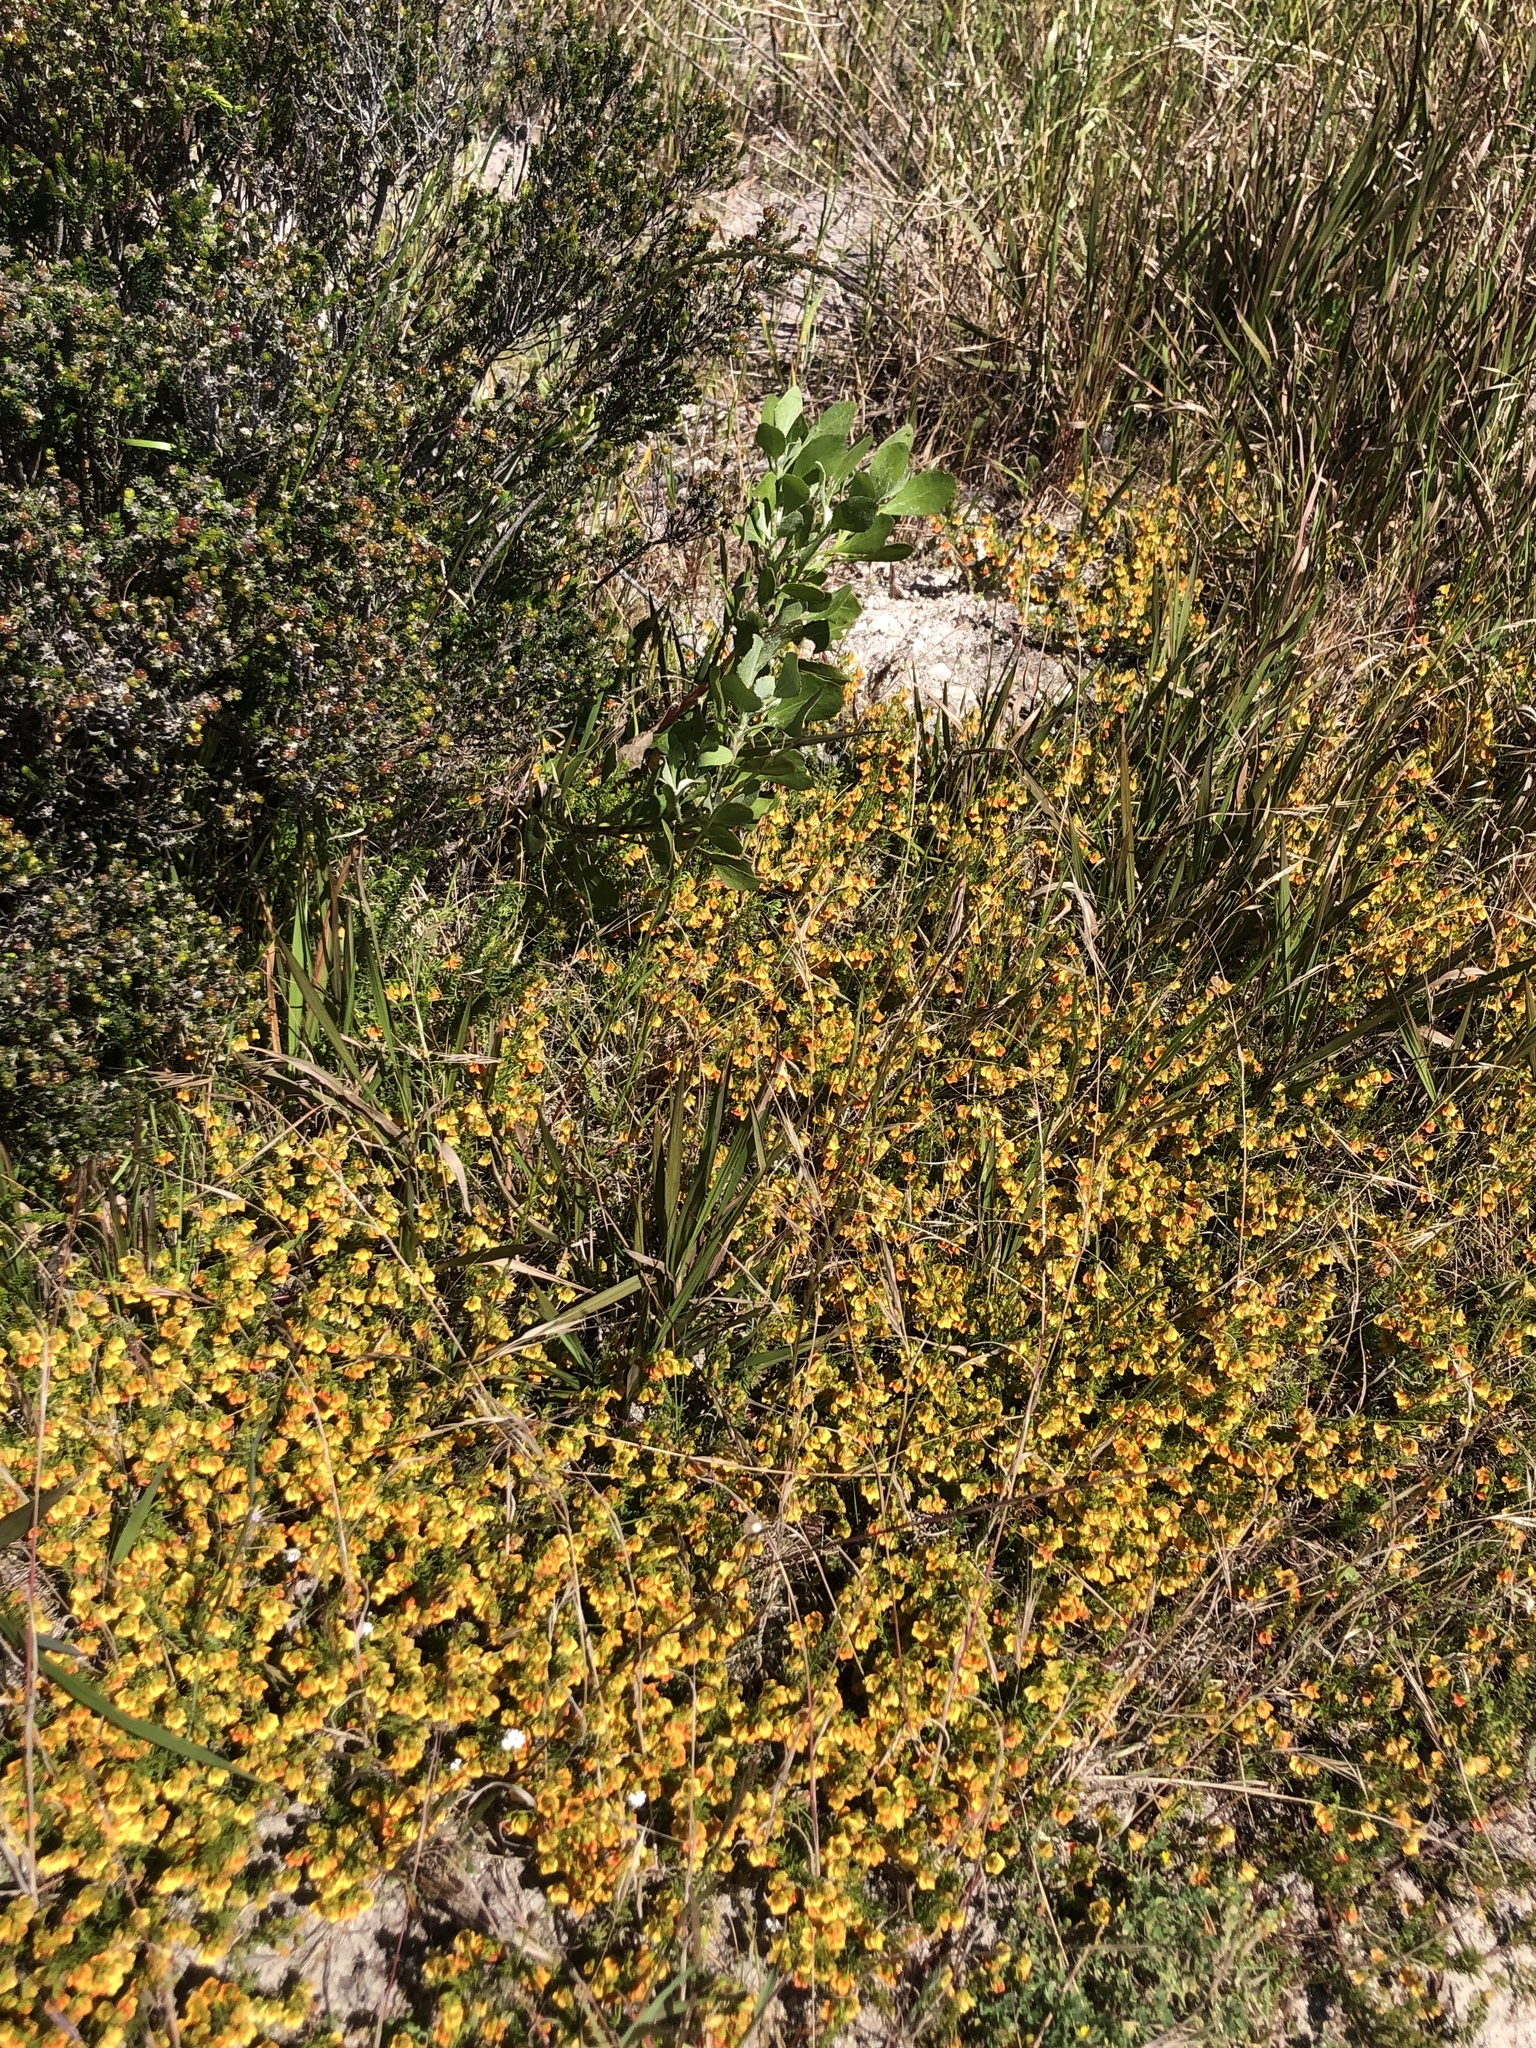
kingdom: Animalia
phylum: Arthropoda
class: Insecta
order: Hymenoptera
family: Apidae
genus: Apis
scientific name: Apis mellifera
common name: Honey bee
